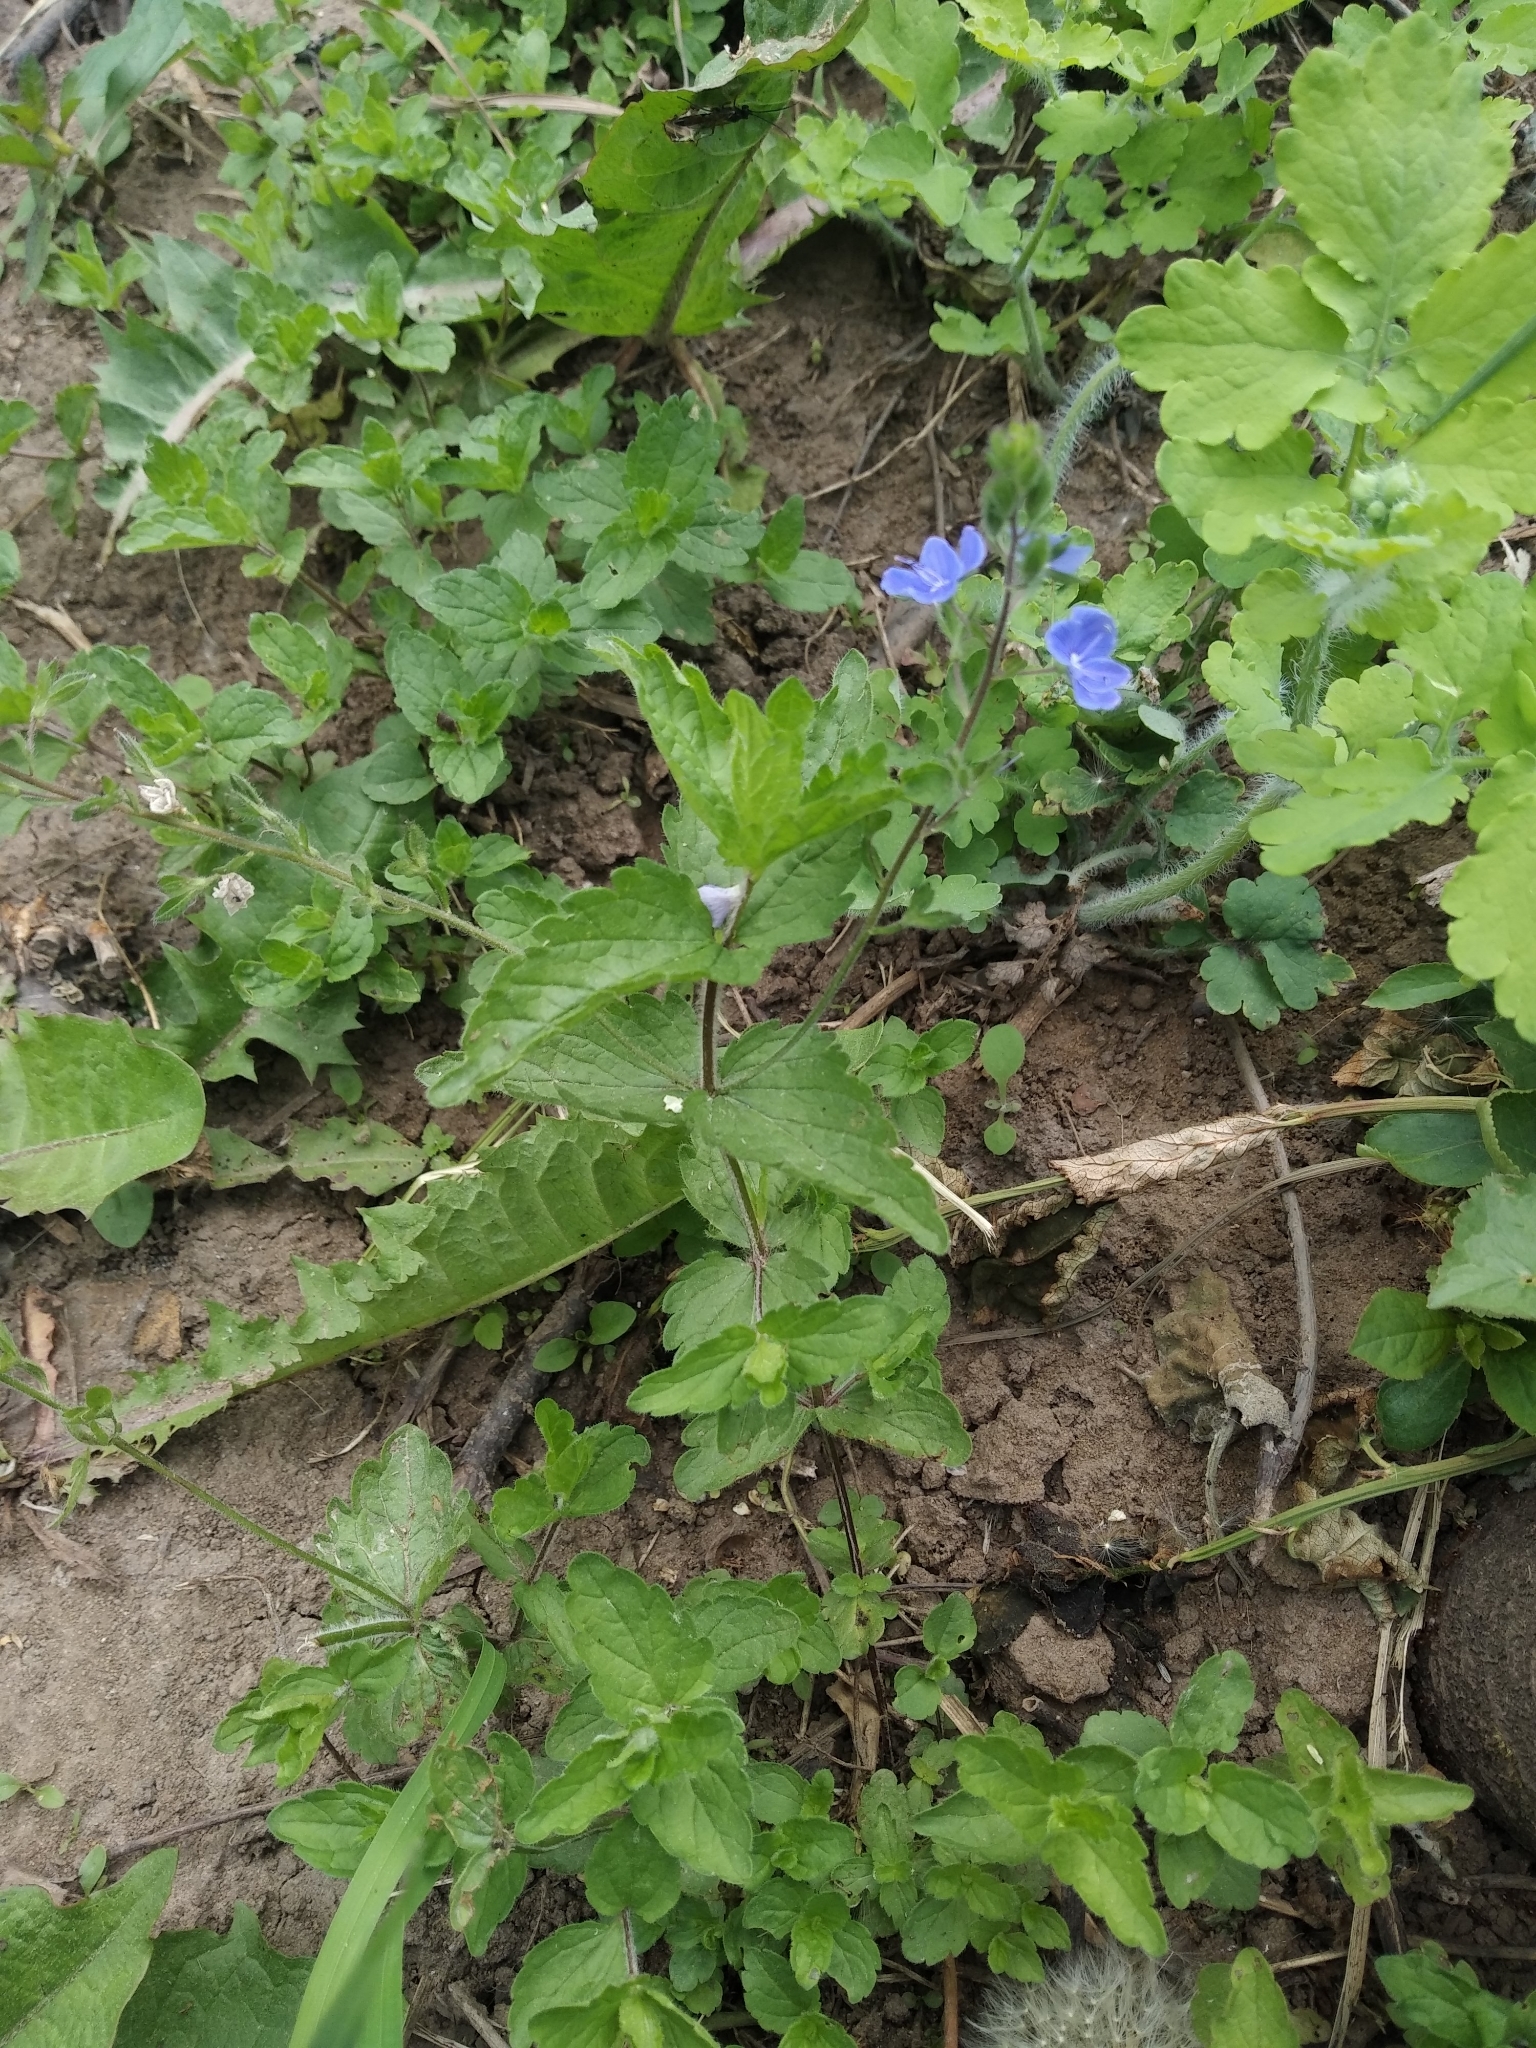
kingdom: Plantae
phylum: Tracheophyta
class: Magnoliopsida
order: Lamiales
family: Plantaginaceae
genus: Veronica
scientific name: Veronica chamaedrys
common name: Germander speedwell
